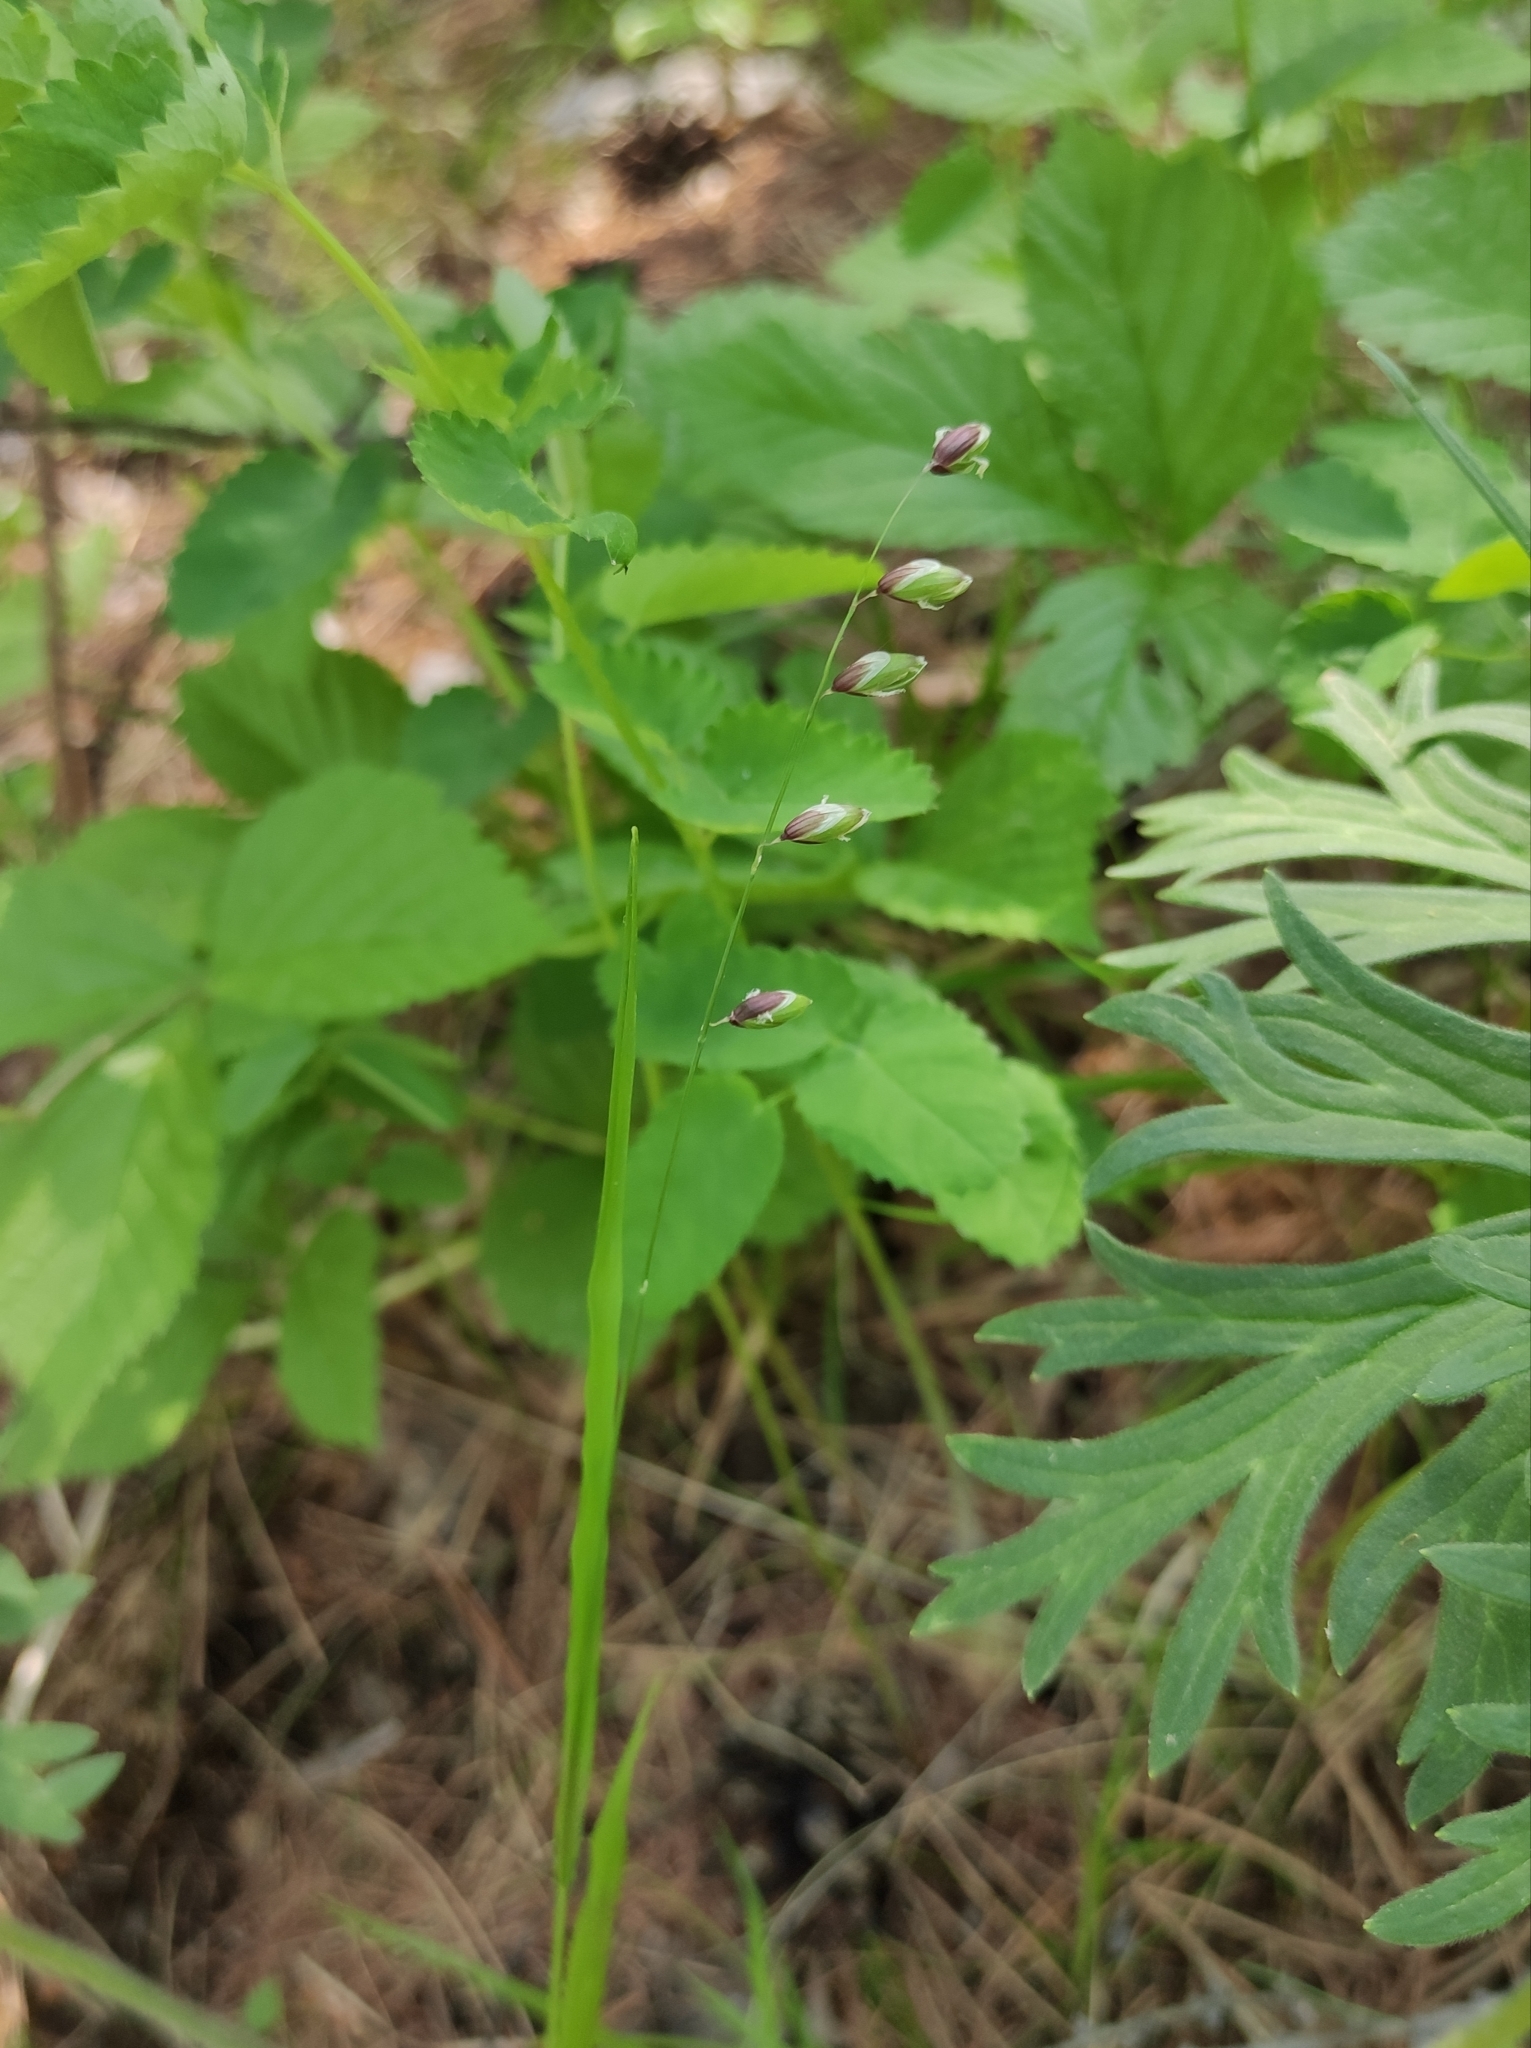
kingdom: Plantae
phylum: Tracheophyta
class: Liliopsida
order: Poales
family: Poaceae
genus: Melica
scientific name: Melica nutans
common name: Mountain melick
